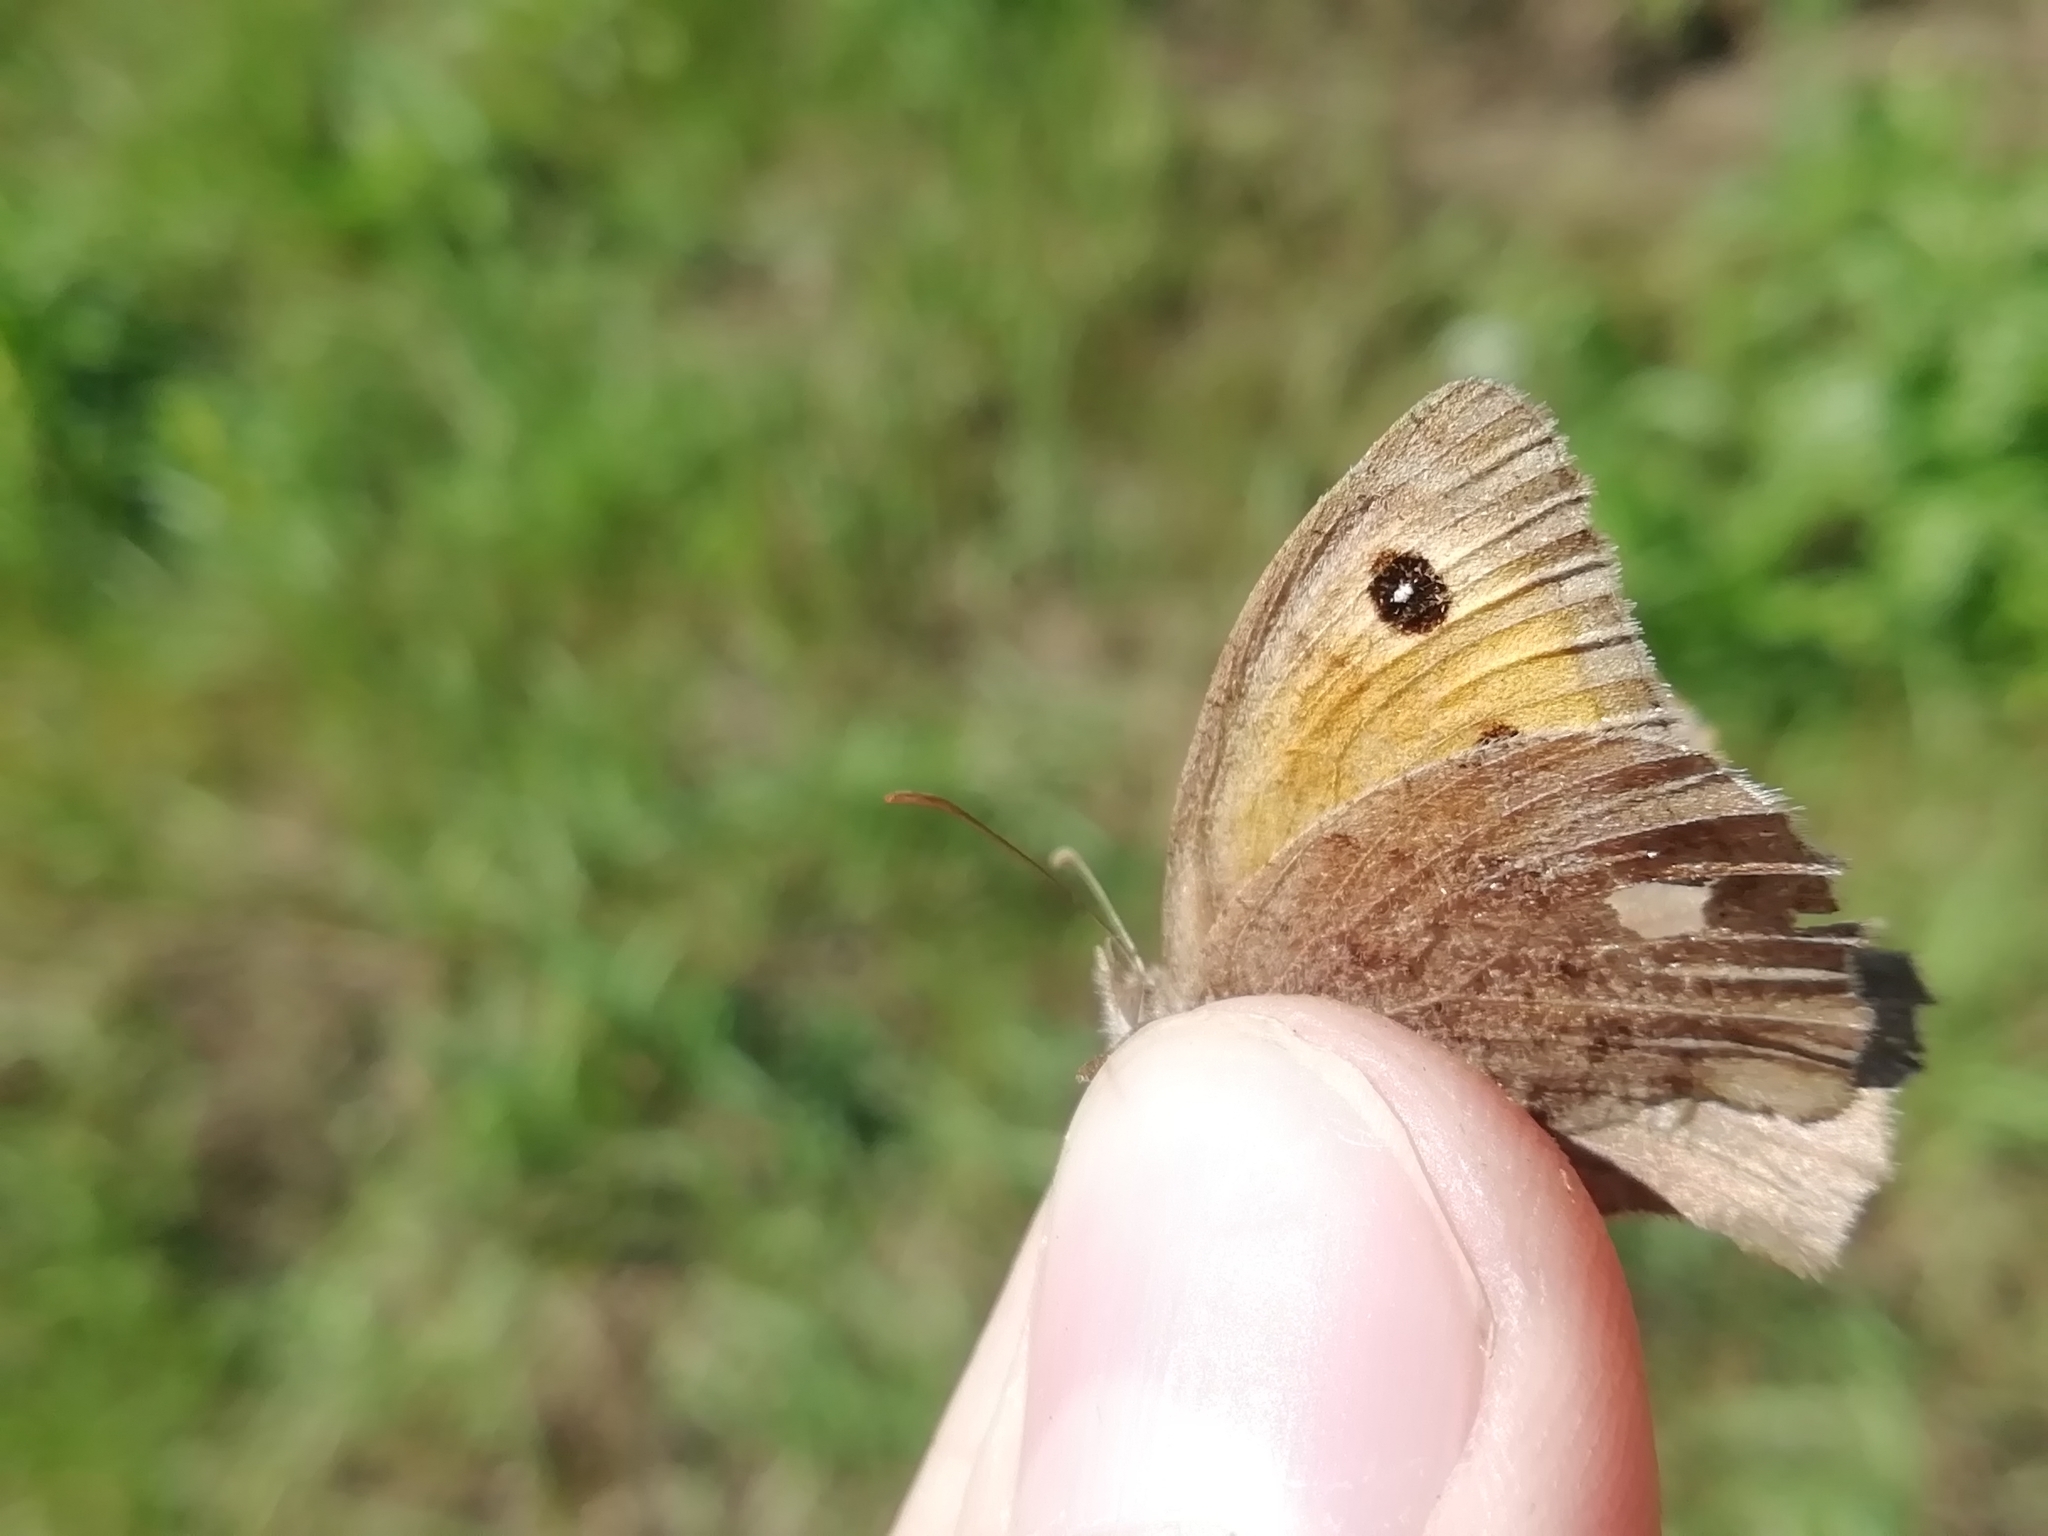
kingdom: Animalia
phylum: Arthropoda
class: Insecta
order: Lepidoptera
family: Nymphalidae
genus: Hyponephele
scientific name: Hyponephele lycaon
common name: Dusky meadow brown
